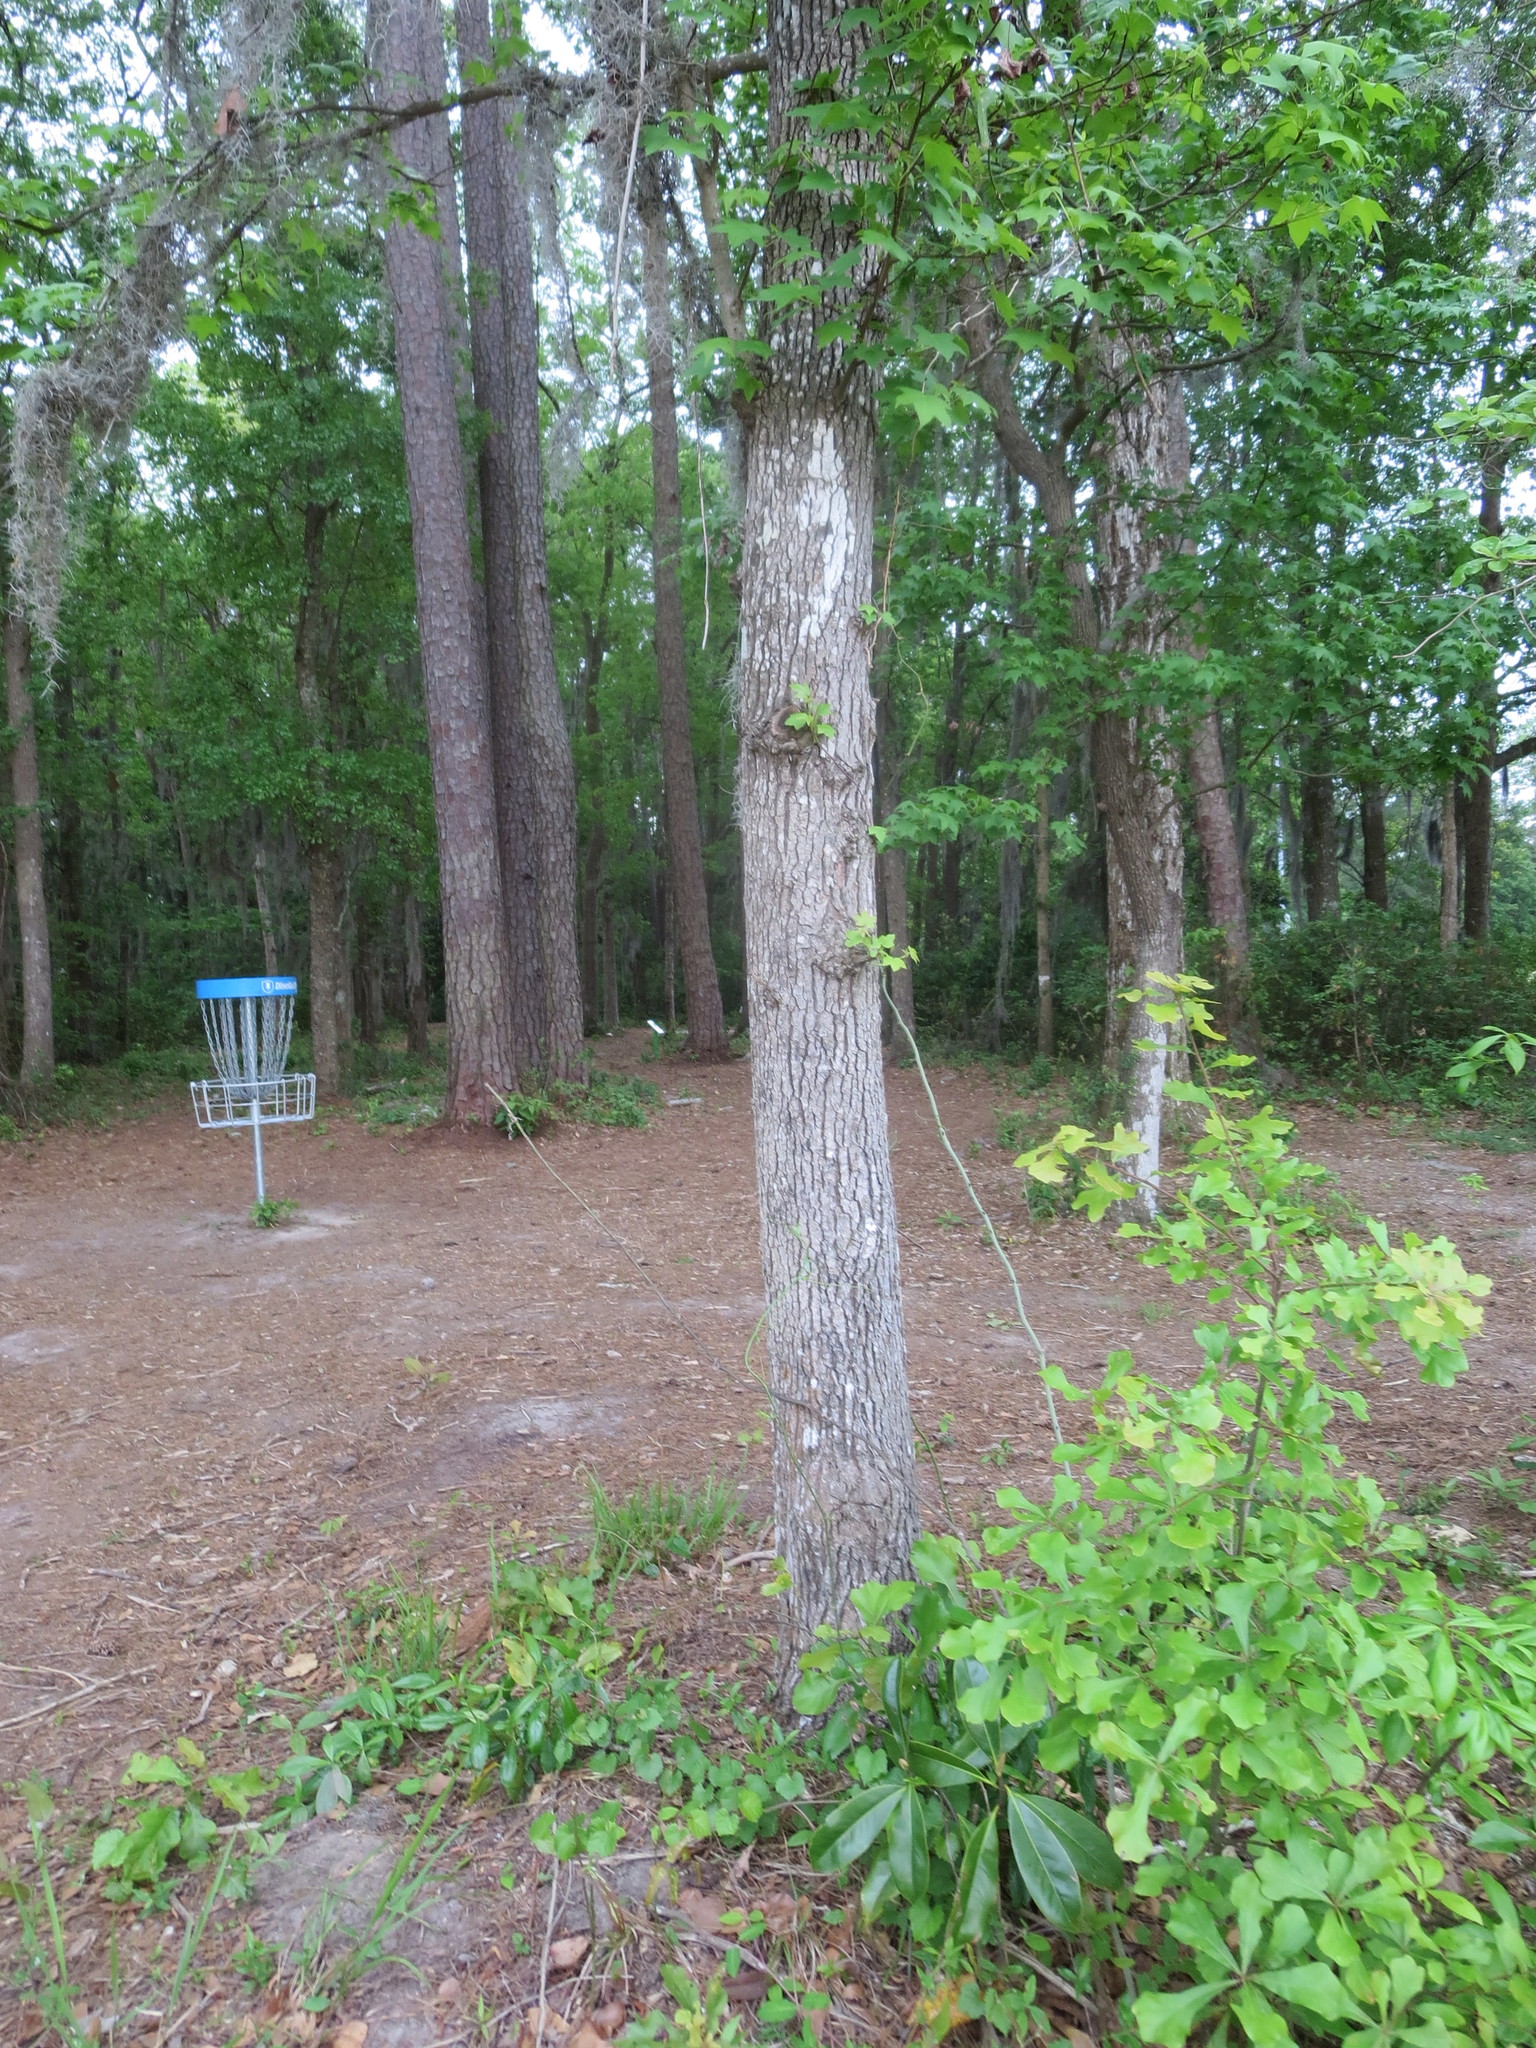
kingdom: Plantae
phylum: Tracheophyta
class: Magnoliopsida
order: Saxifragales
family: Altingiaceae
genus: Liquidambar
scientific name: Liquidambar styraciflua
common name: Sweet gum
